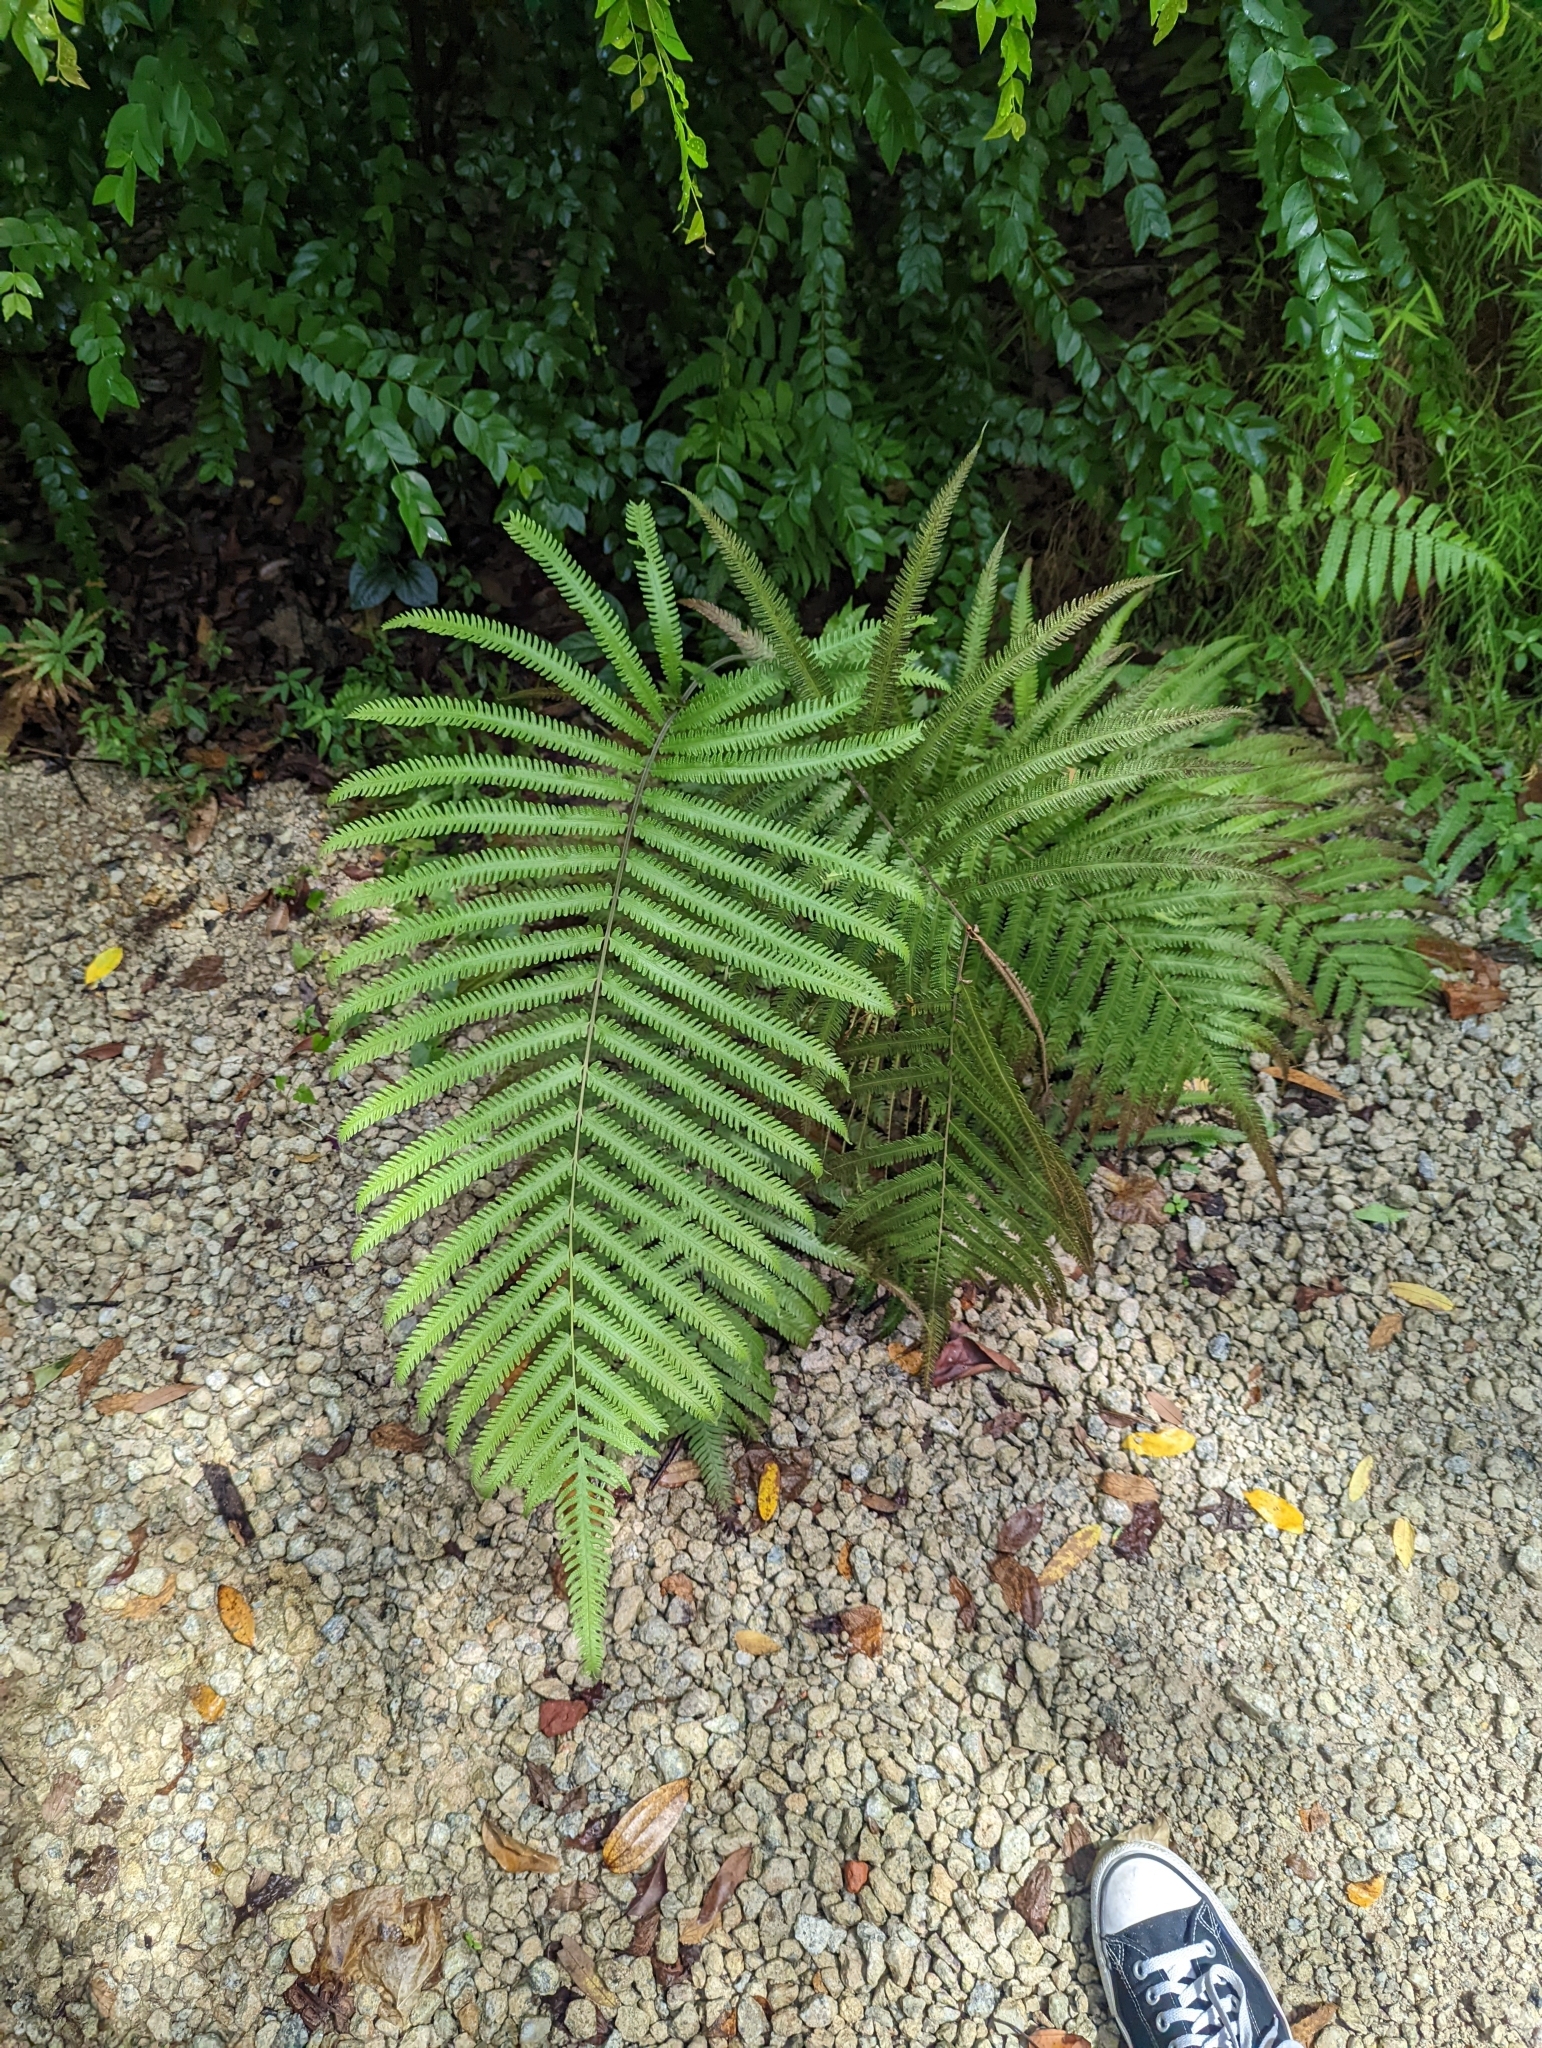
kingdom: Plantae
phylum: Tracheophyta
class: Polypodiopsida
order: Polypodiales
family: Thelypteridaceae
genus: Amblovenatum
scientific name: Amblovenatum opulentum
